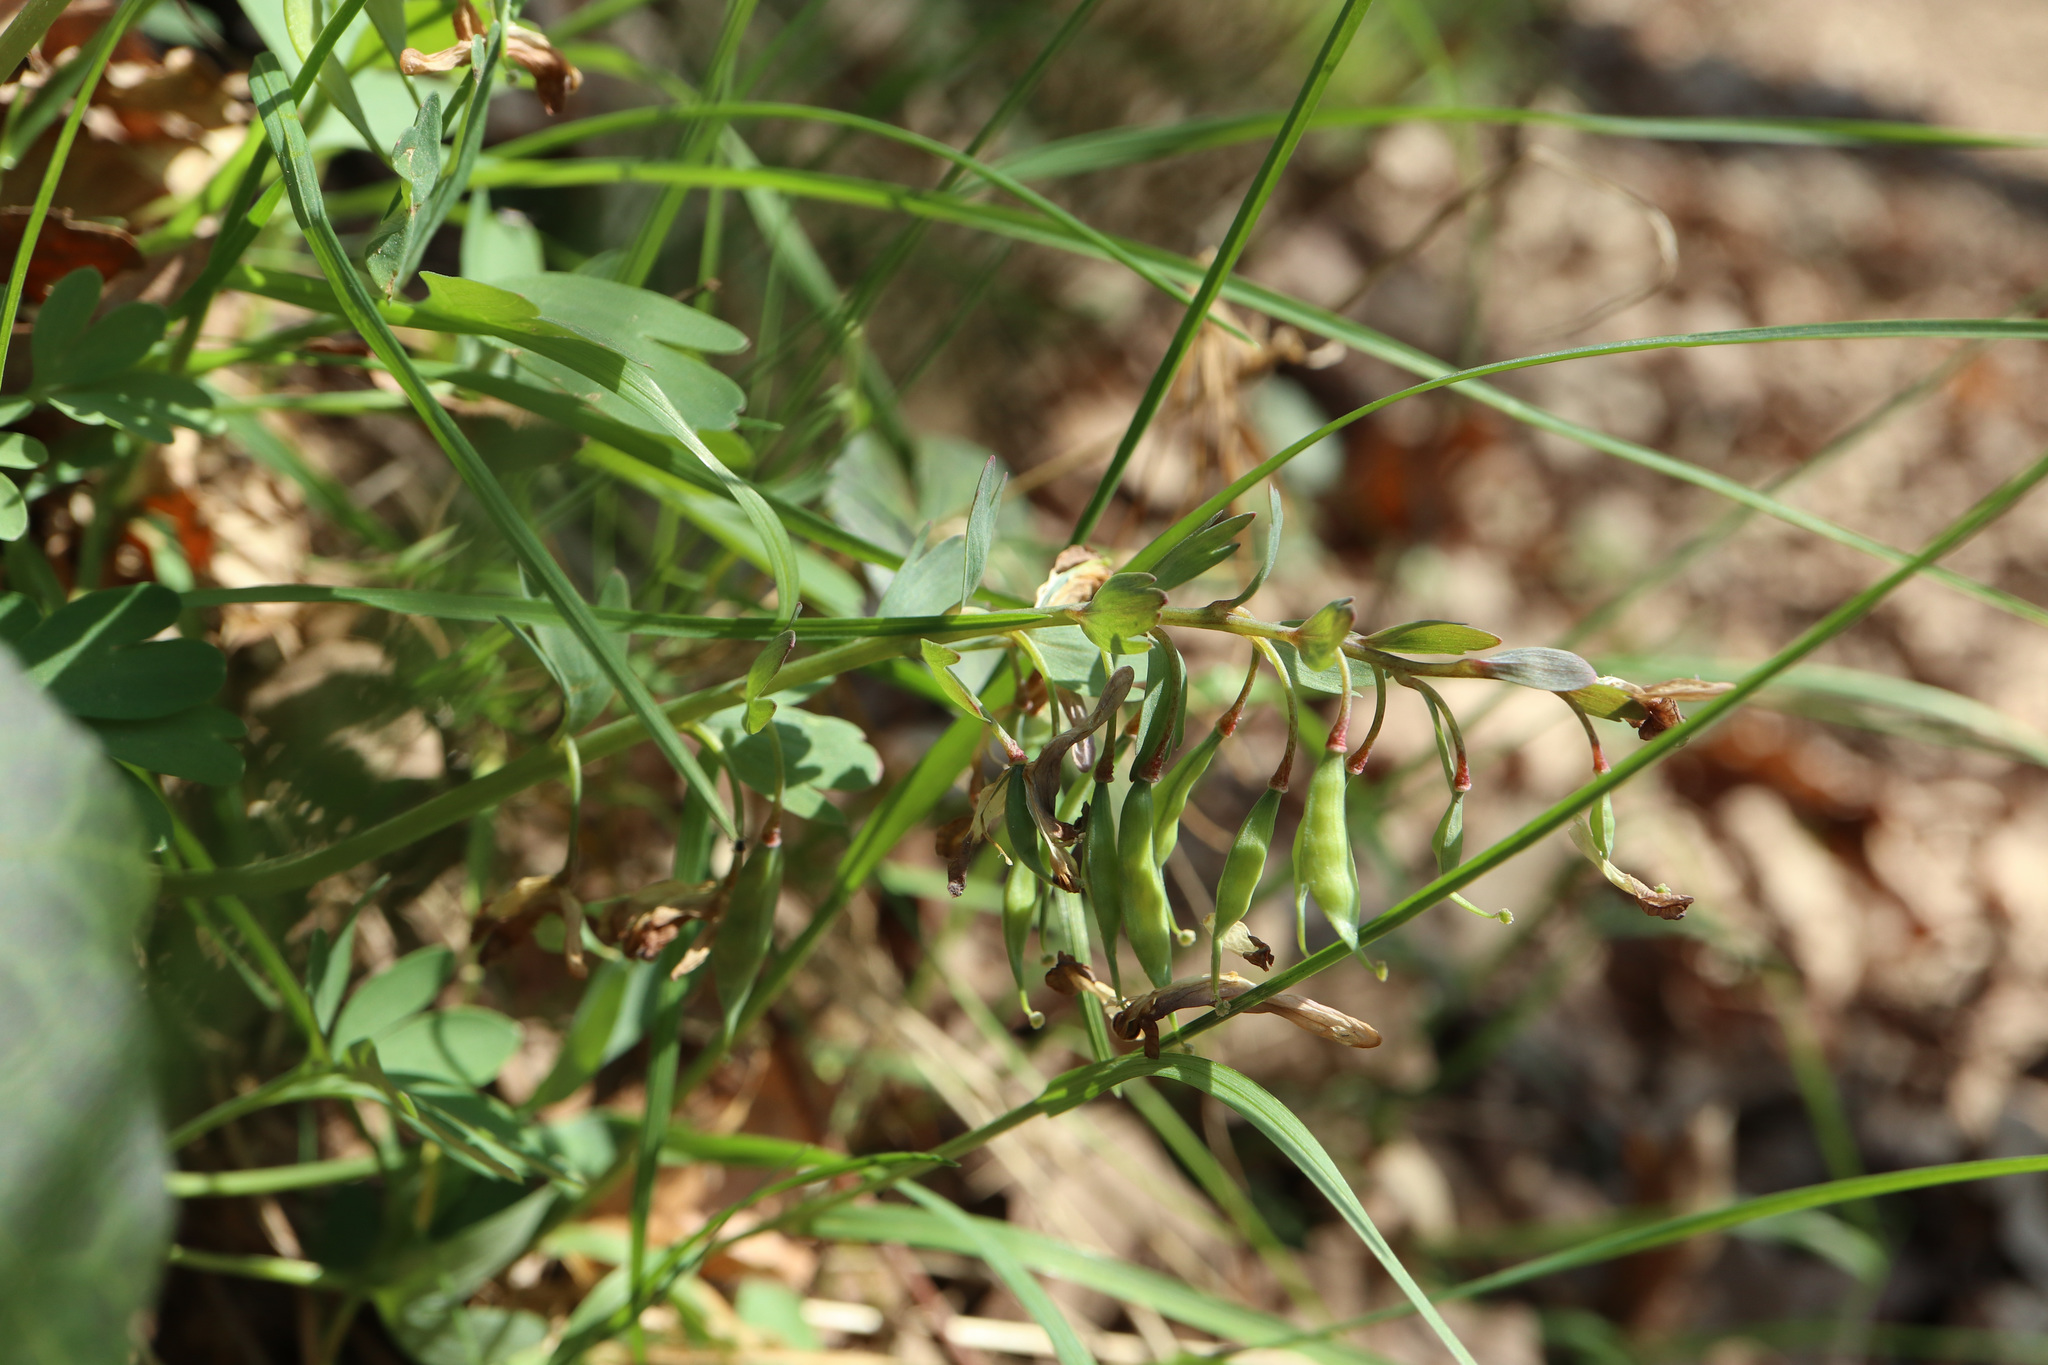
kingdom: Plantae
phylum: Tracheophyta
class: Magnoliopsida
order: Ranunculales
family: Papaveraceae
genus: Corydalis
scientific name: Corydalis solida
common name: Bird-in-a-bush
